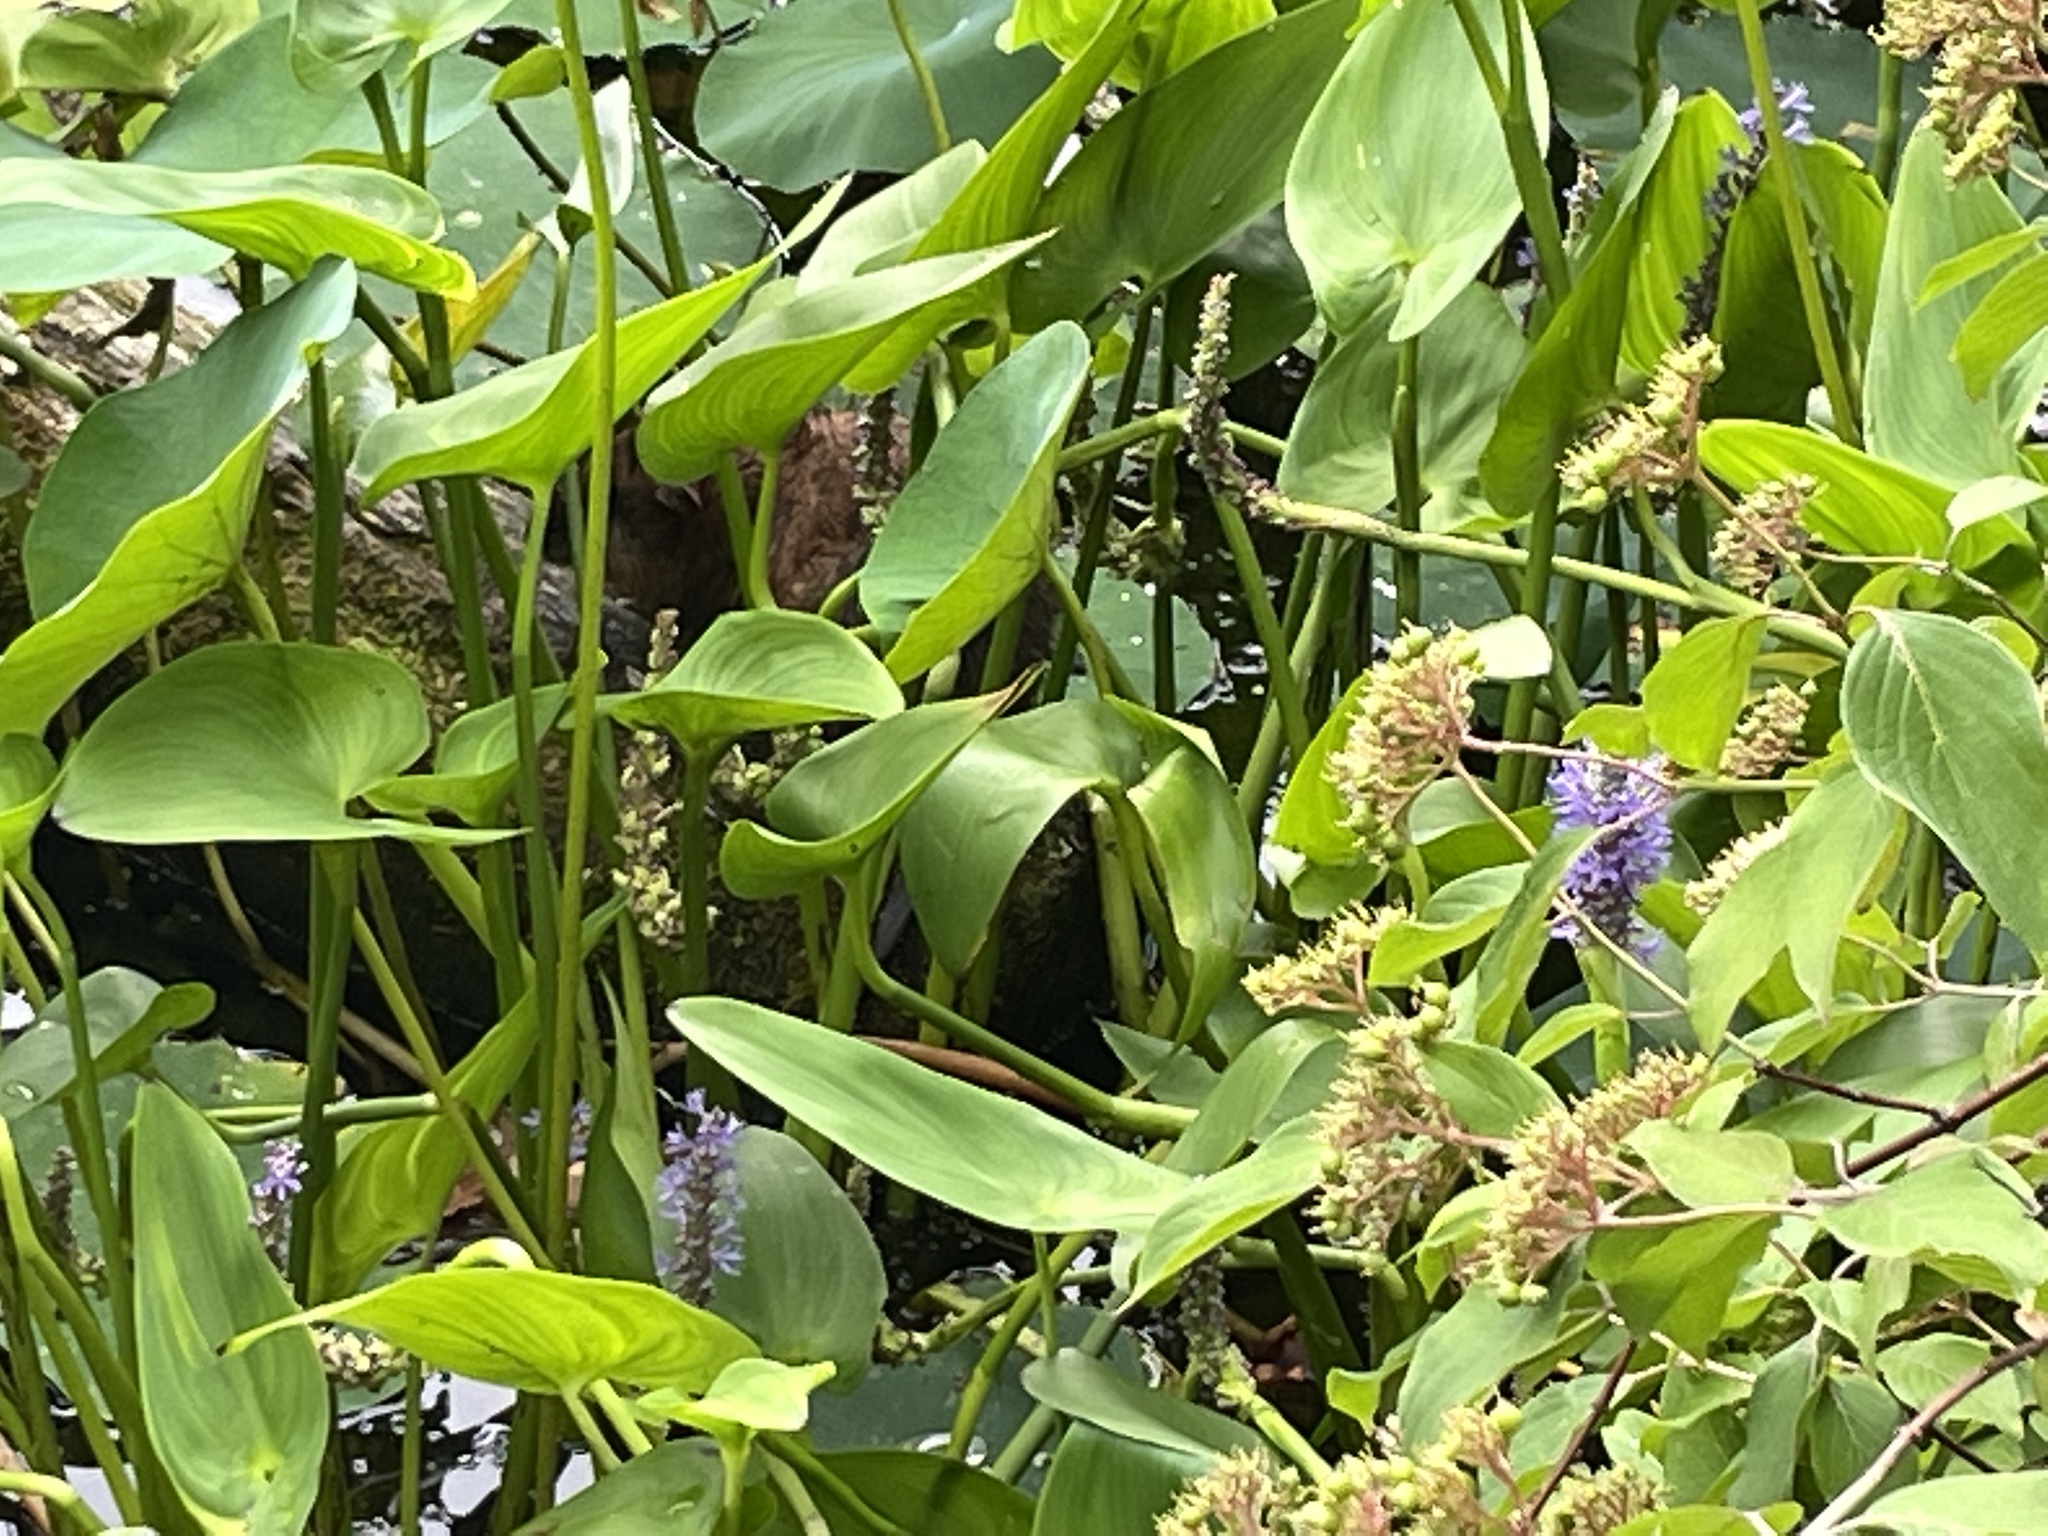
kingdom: Animalia
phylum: Chordata
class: Mammalia
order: Rodentia
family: Cricetidae
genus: Ondatra
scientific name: Ondatra zibethicus
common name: Muskrat
